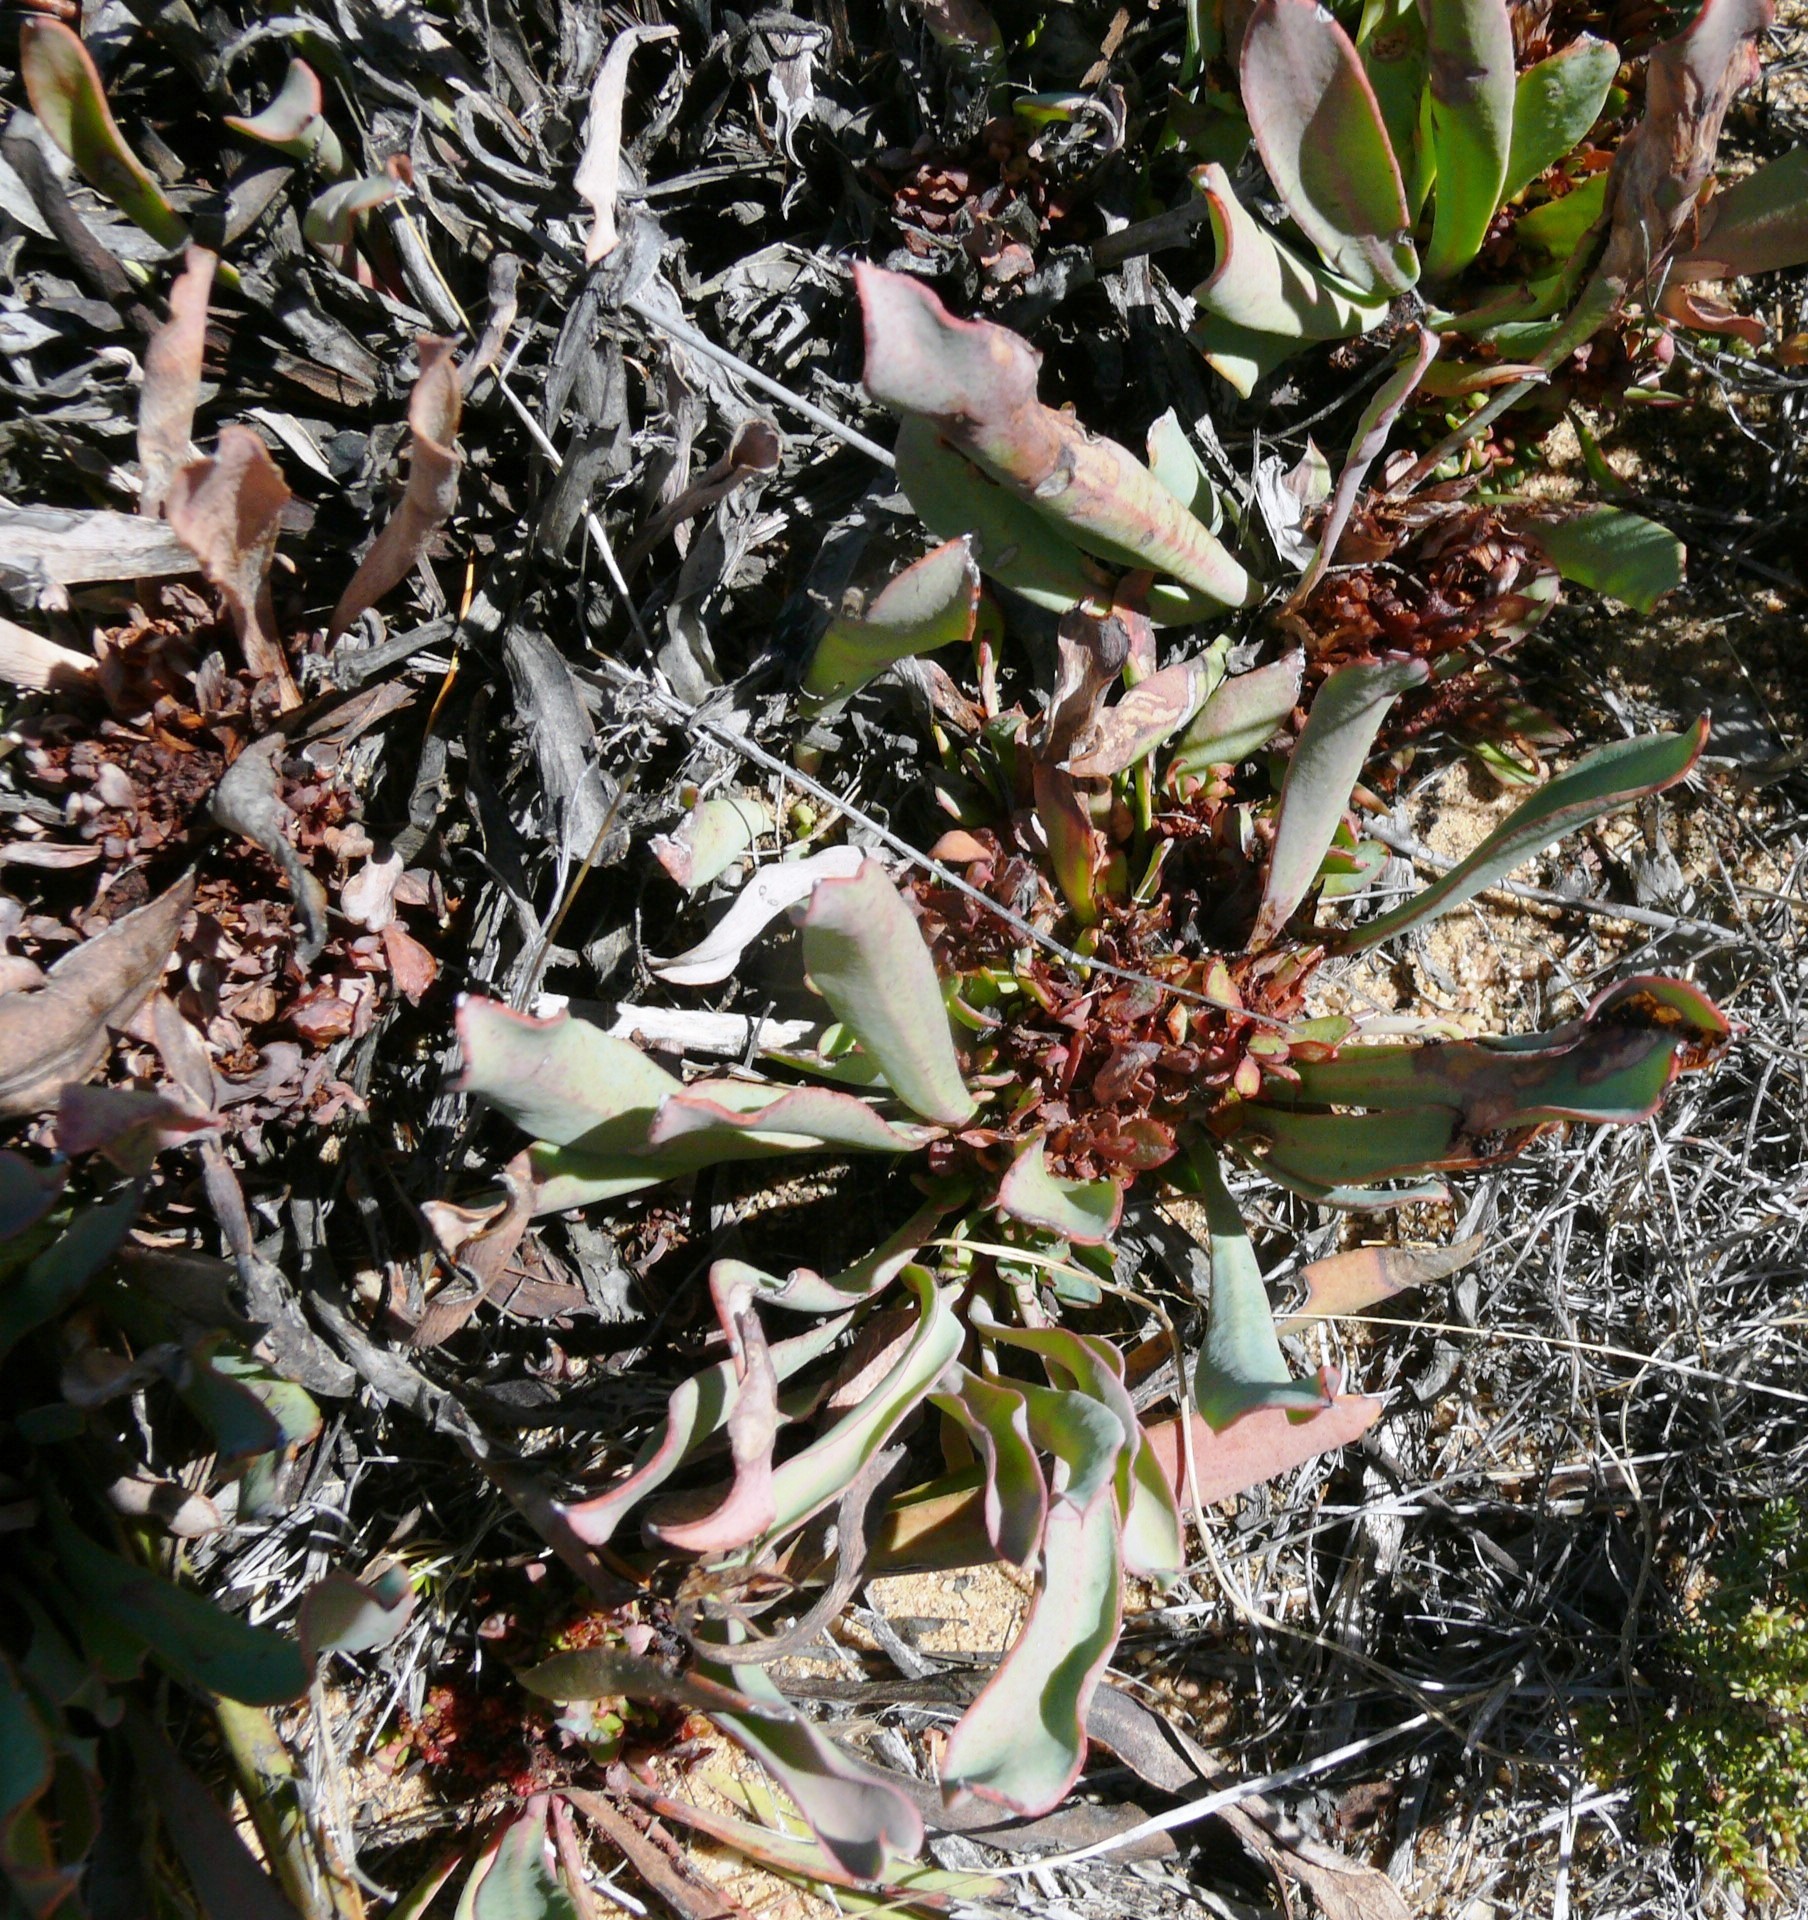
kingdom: Plantae
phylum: Tracheophyta
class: Magnoliopsida
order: Proteales
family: Proteaceae
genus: Protea
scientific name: Protea laevis
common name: Smooth-leaf sugarbush
